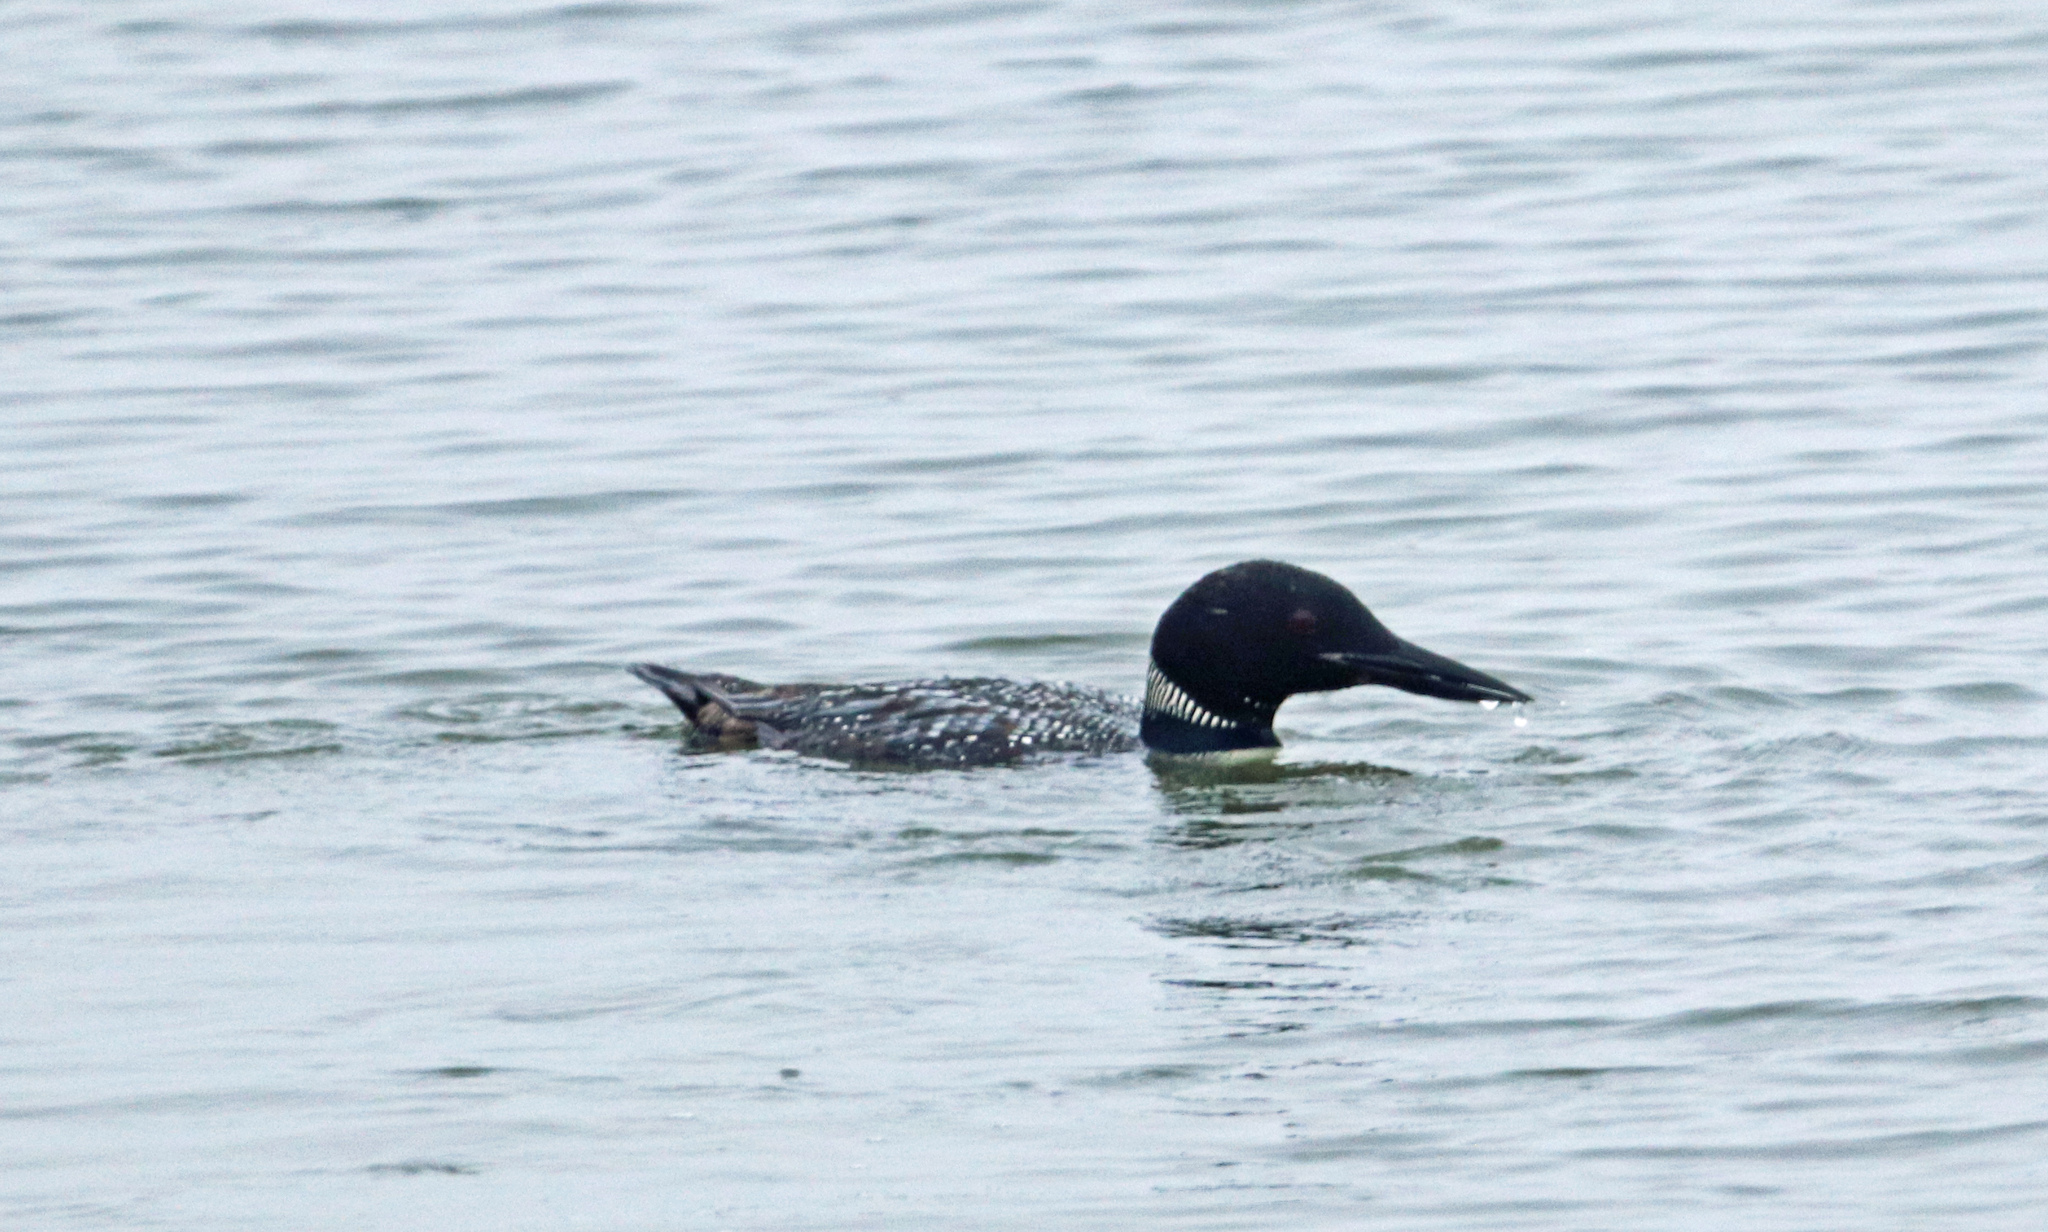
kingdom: Animalia
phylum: Chordata
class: Aves
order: Gaviiformes
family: Gaviidae
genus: Gavia
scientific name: Gavia immer
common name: Common loon
